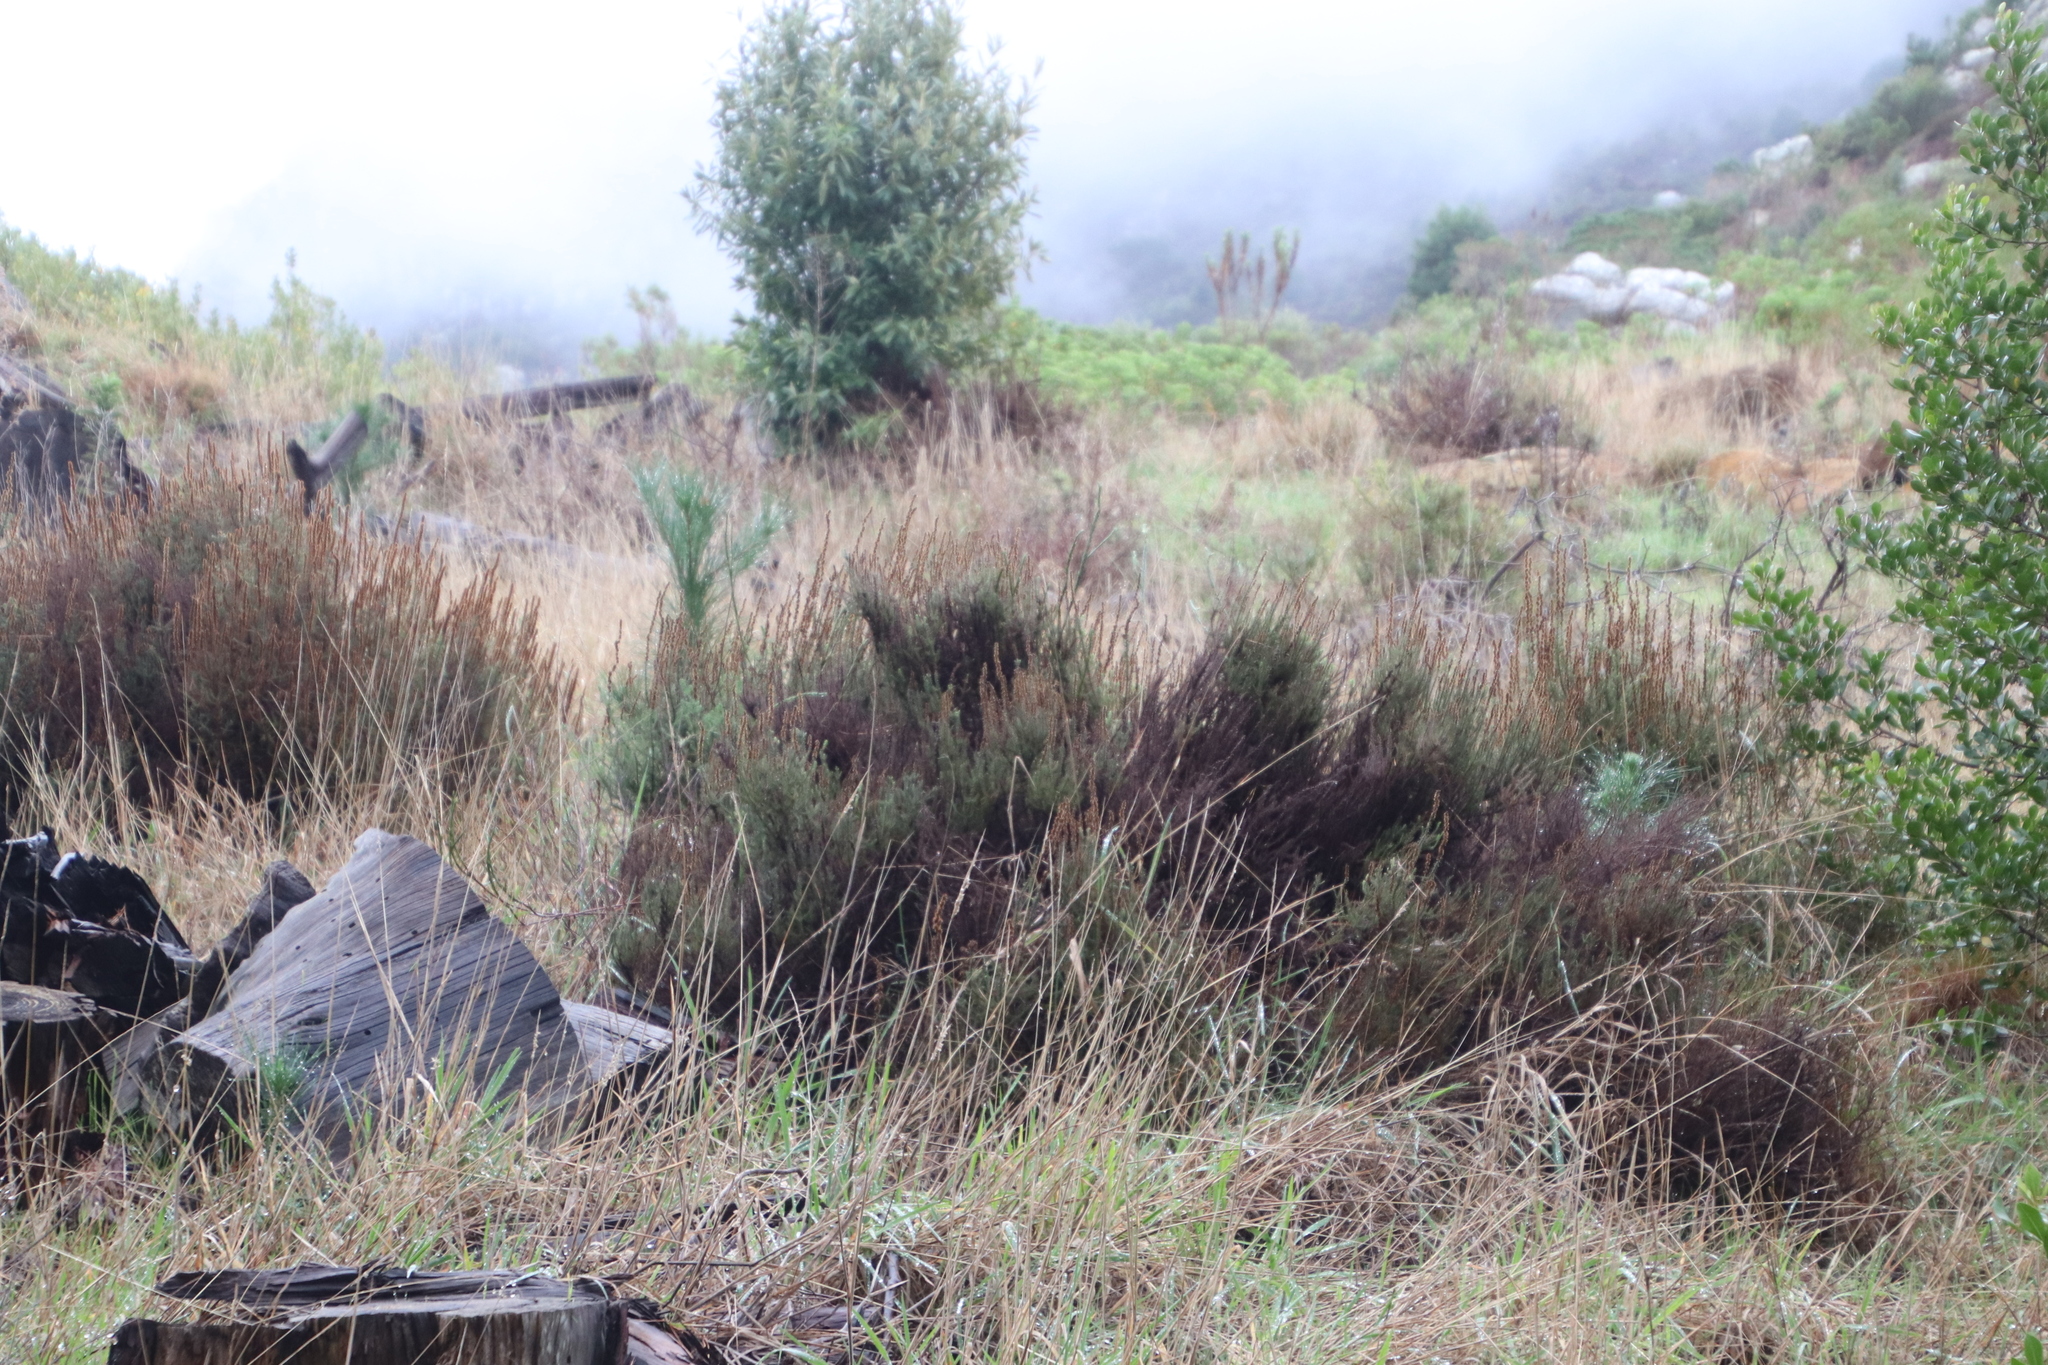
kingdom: Plantae
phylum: Tracheophyta
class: Magnoliopsida
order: Asterales
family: Asteraceae
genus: Seriphium
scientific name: Seriphium cinereum
